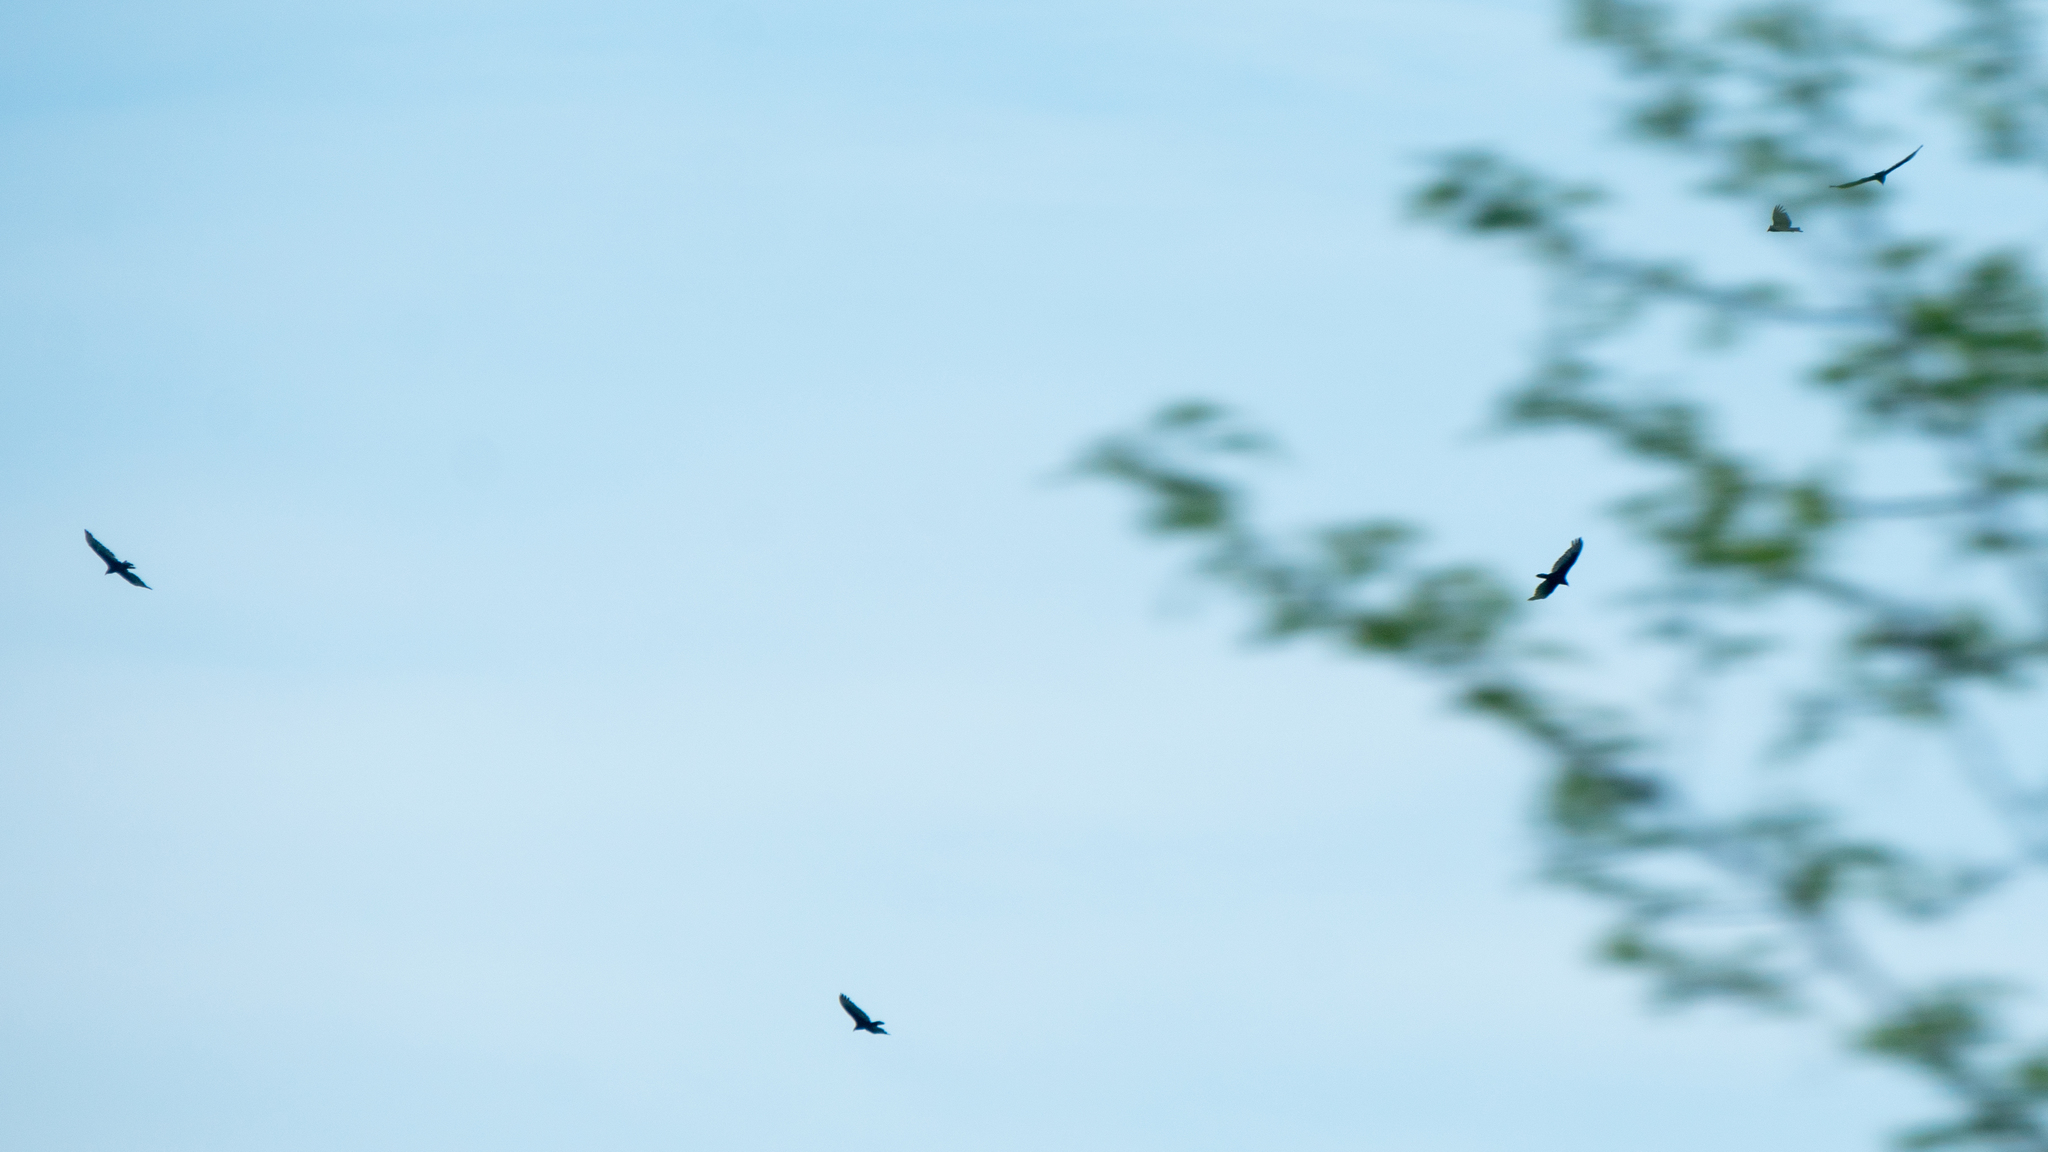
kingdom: Animalia
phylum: Chordata
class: Aves
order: Accipitriformes
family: Cathartidae
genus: Cathartes
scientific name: Cathartes aura
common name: Turkey vulture
